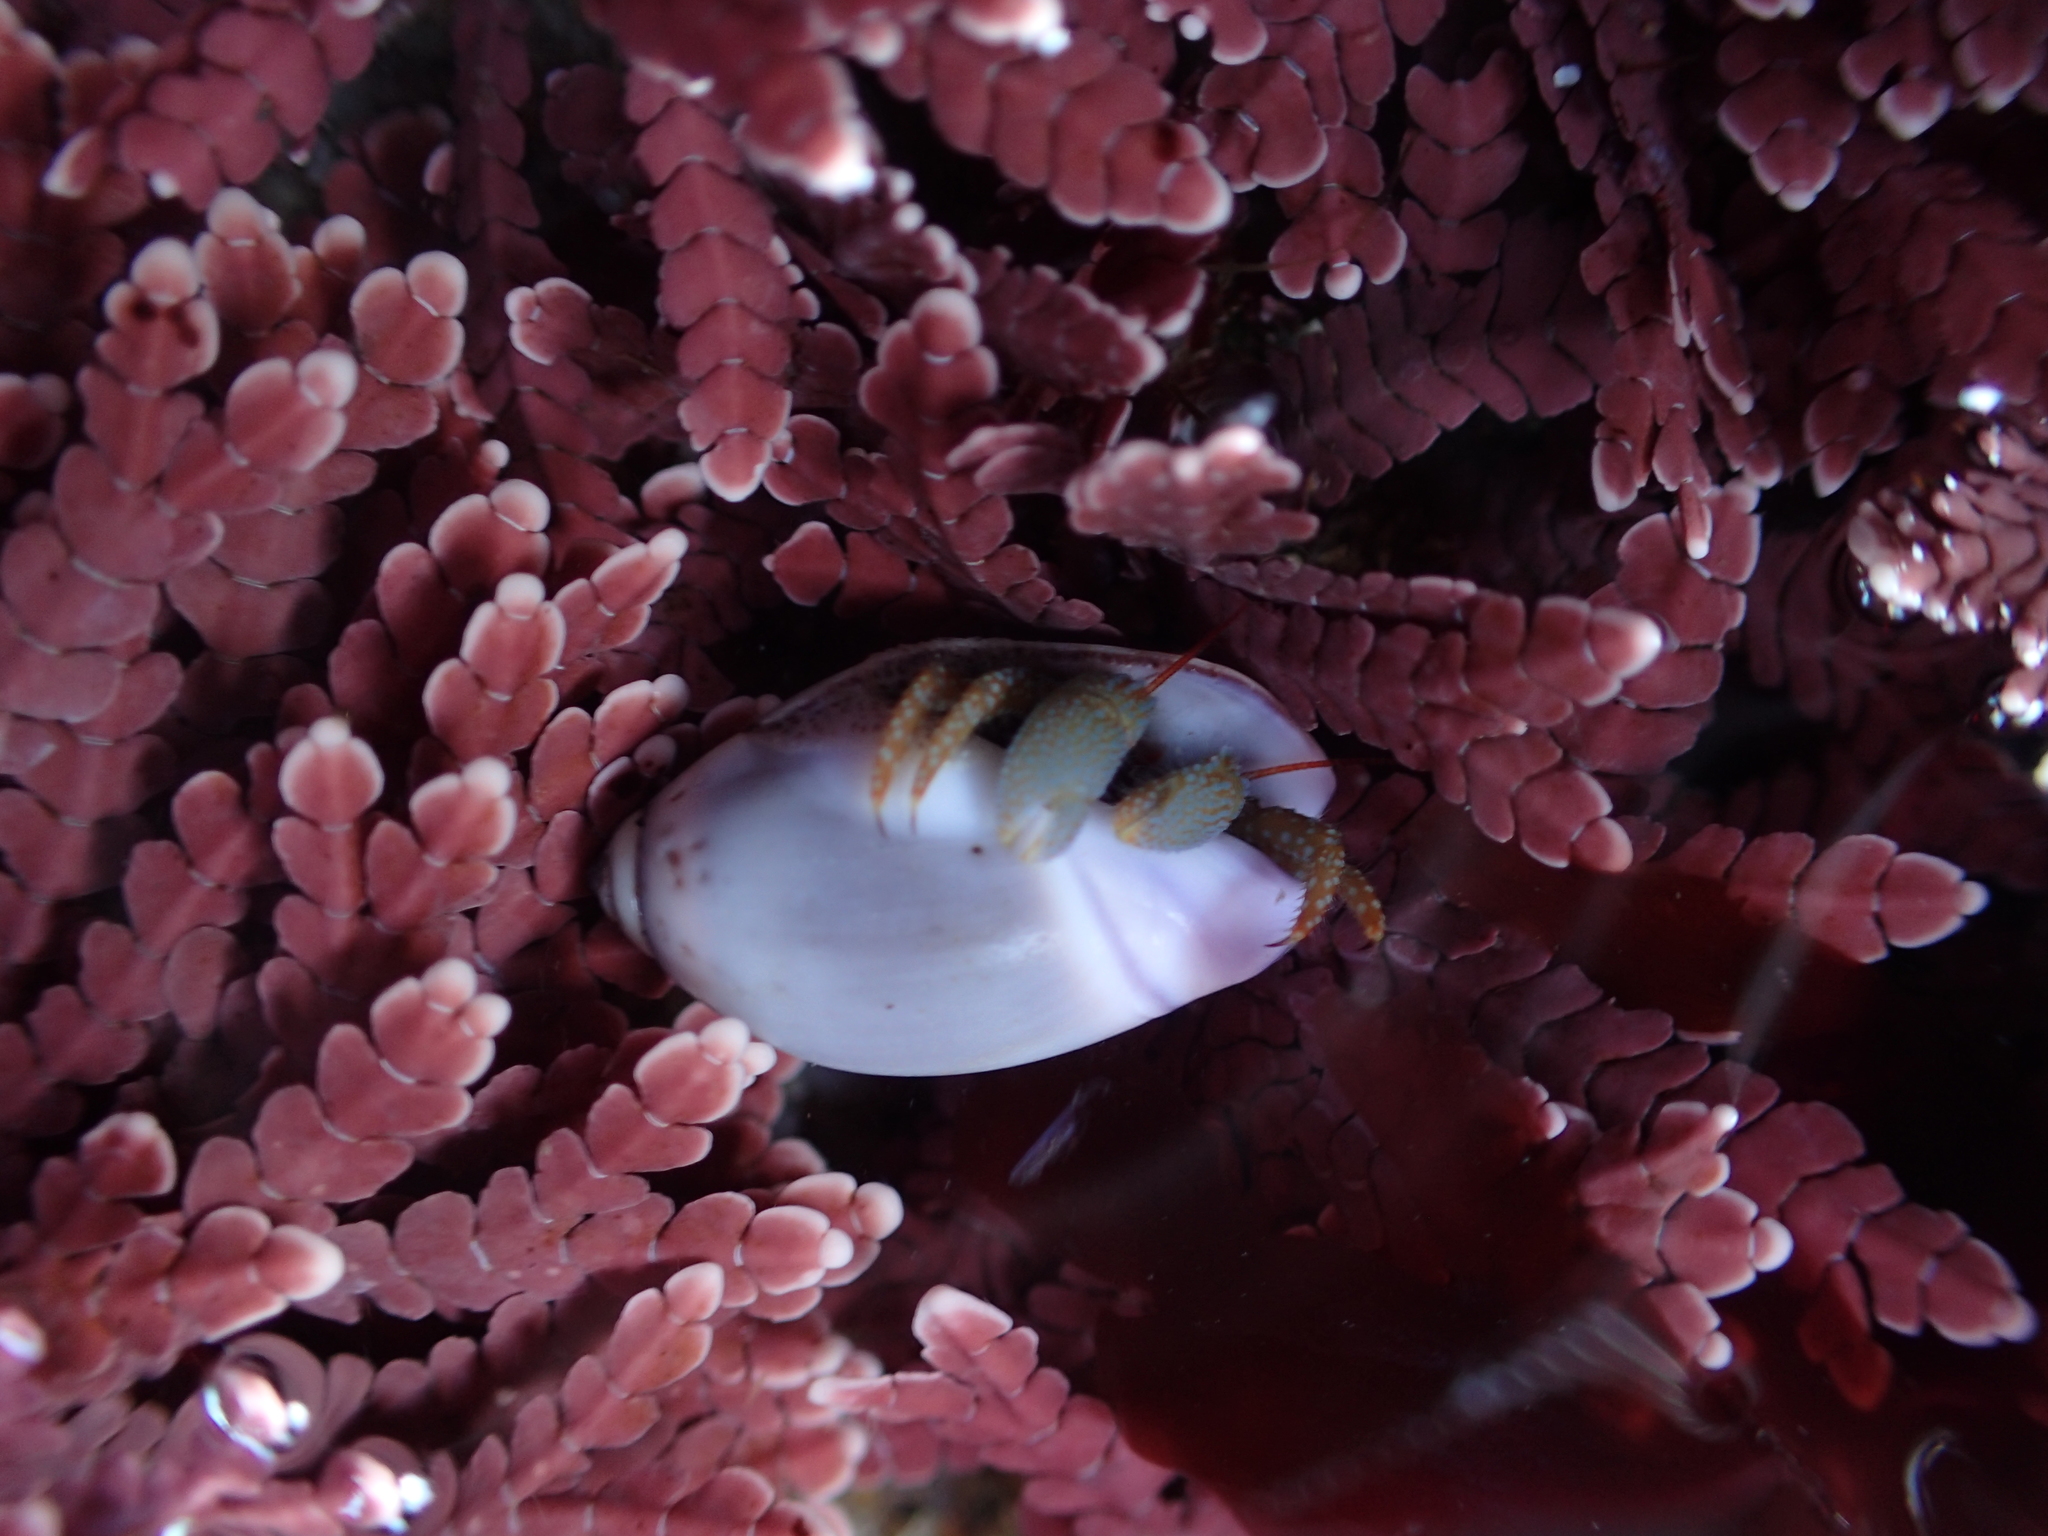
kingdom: Animalia
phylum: Arthropoda
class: Malacostraca
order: Decapoda
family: Paguridae
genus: Pagurus
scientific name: Pagurus granosimanus
